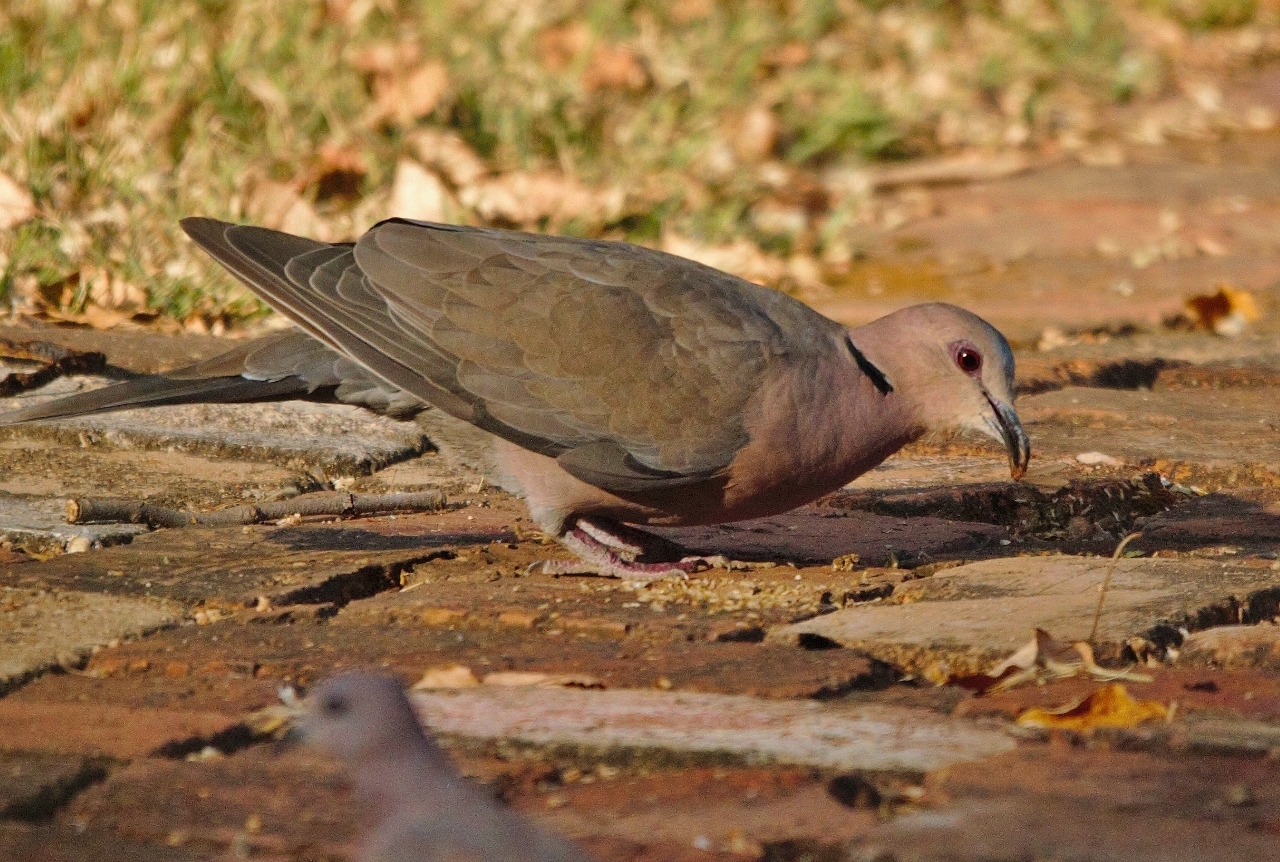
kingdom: Animalia
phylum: Chordata
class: Aves
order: Columbiformes
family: Columbidae
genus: Streptopelia
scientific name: Streptopelia semitorquata
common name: Red-eyed dove
